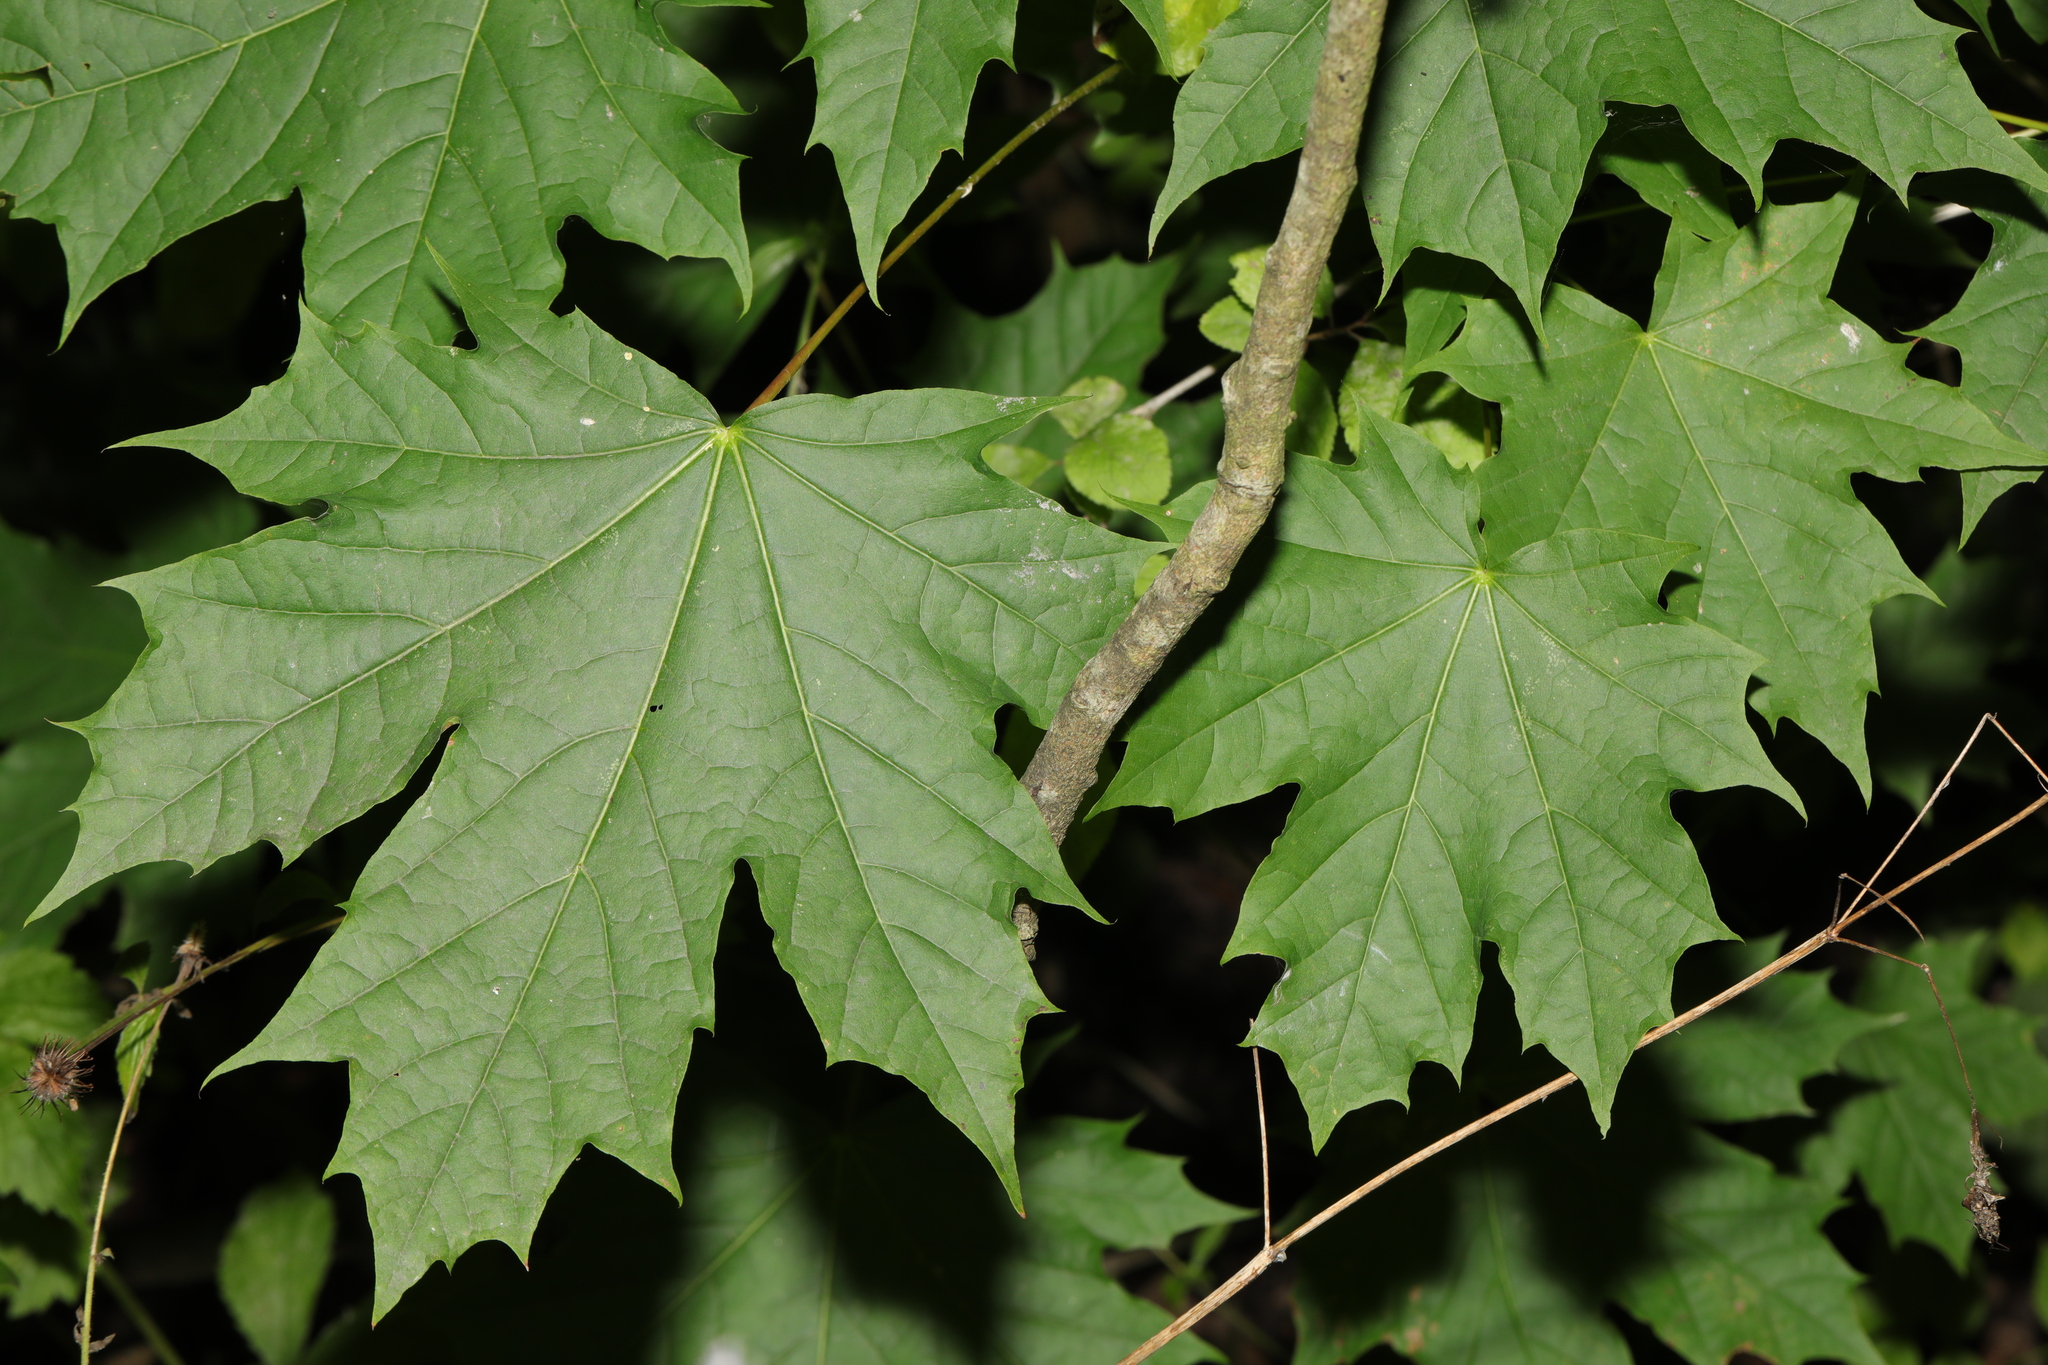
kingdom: Plantae
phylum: Tracheophyta
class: Magnoliopsida
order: Sapindales
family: Sapindaceae
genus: Acer
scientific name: Acer platanoides
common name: Norway maple
